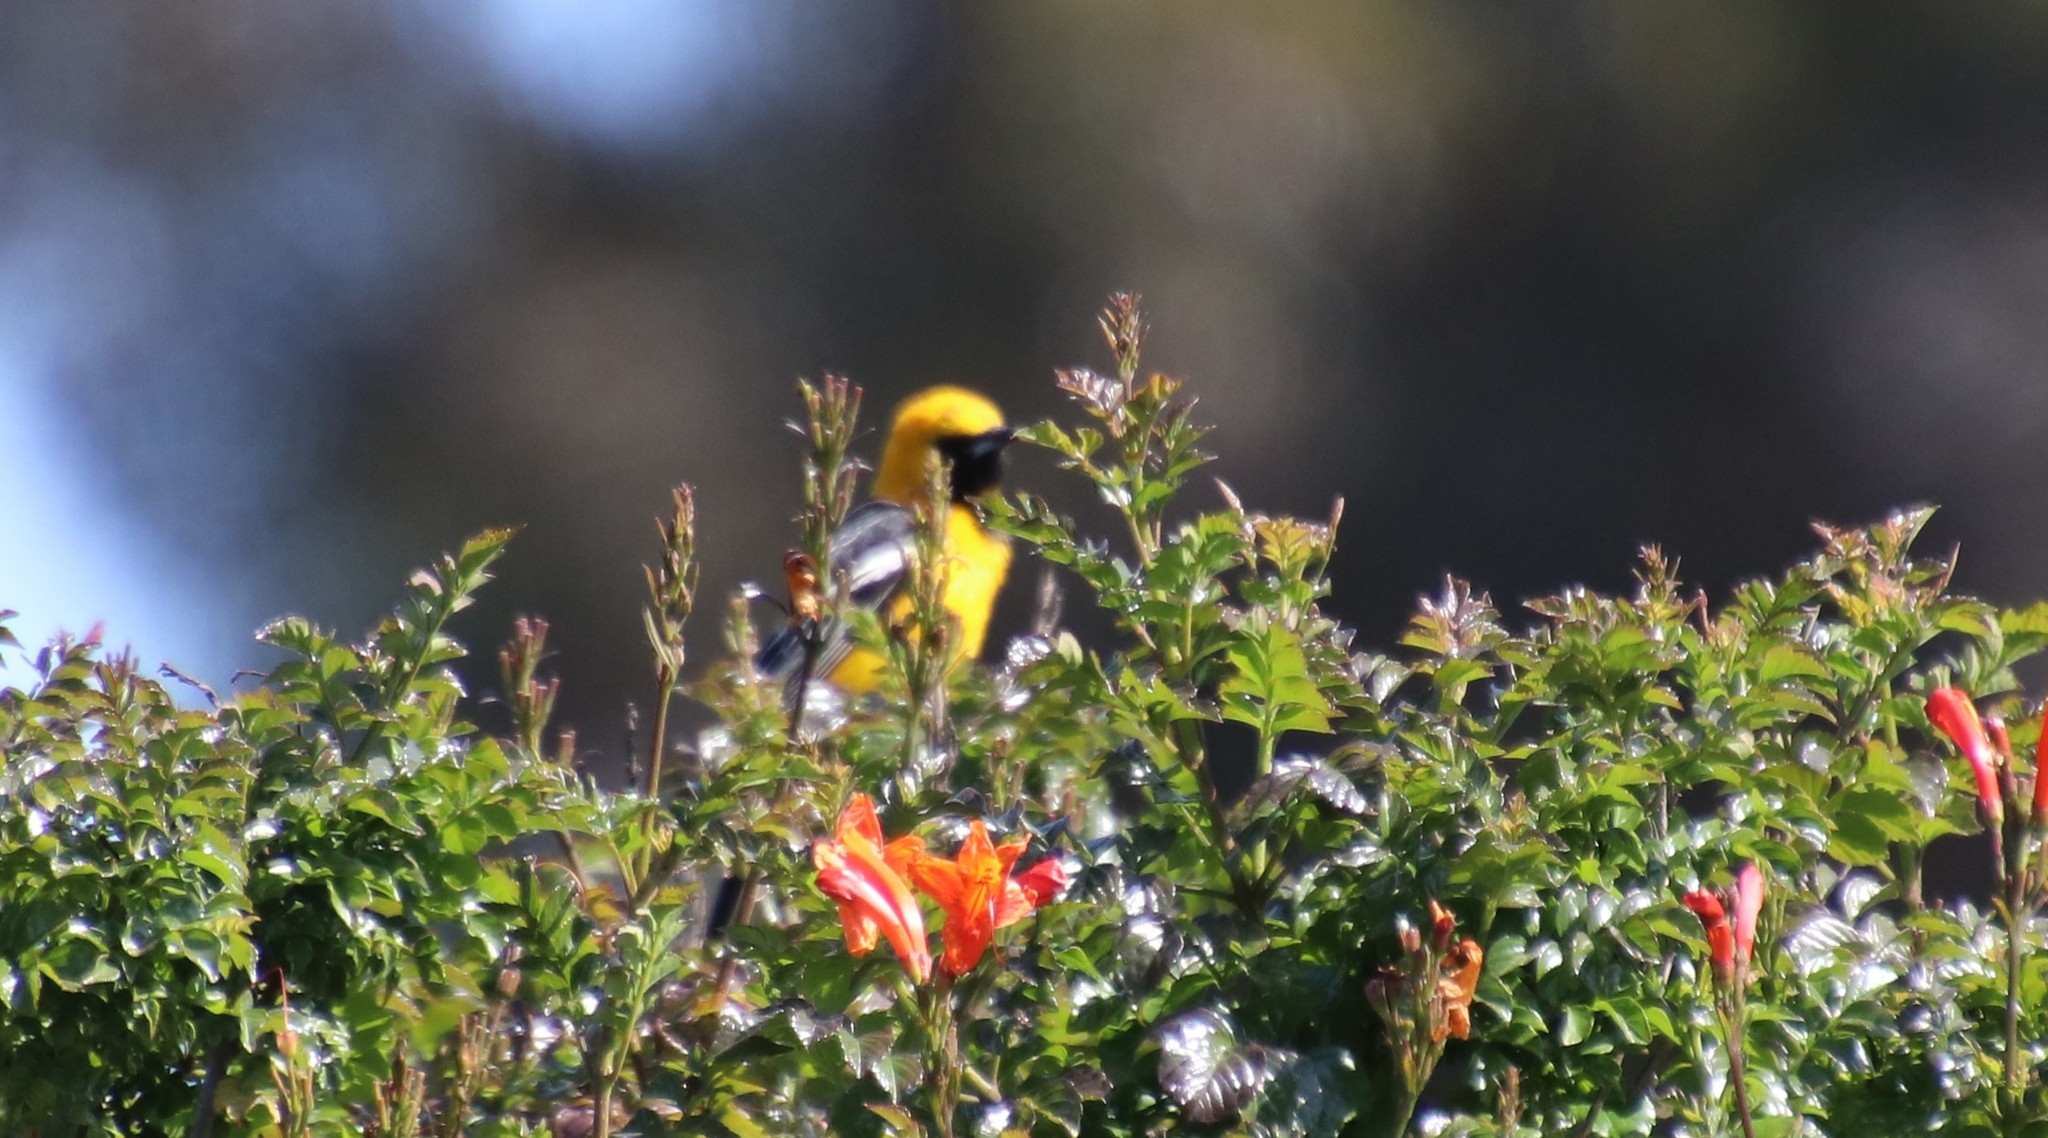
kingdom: Animalia
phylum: Chordata
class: Aves
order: Passeriformes
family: Icteridae
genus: Icterus
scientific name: Icterus cucullatus
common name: Hooded oriole
